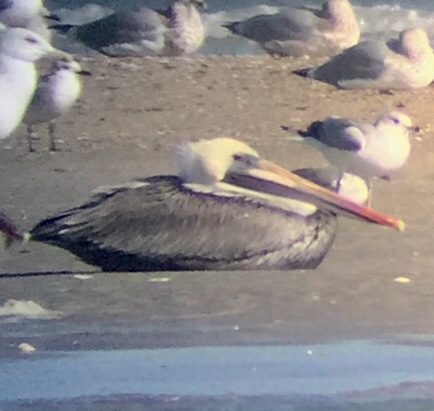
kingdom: Animalia
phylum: Chordata
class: Aves
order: Pelecaniformes
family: Pelecanidae
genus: Pelecanus
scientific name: Pelecanus occidentalis
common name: Brown pelican
